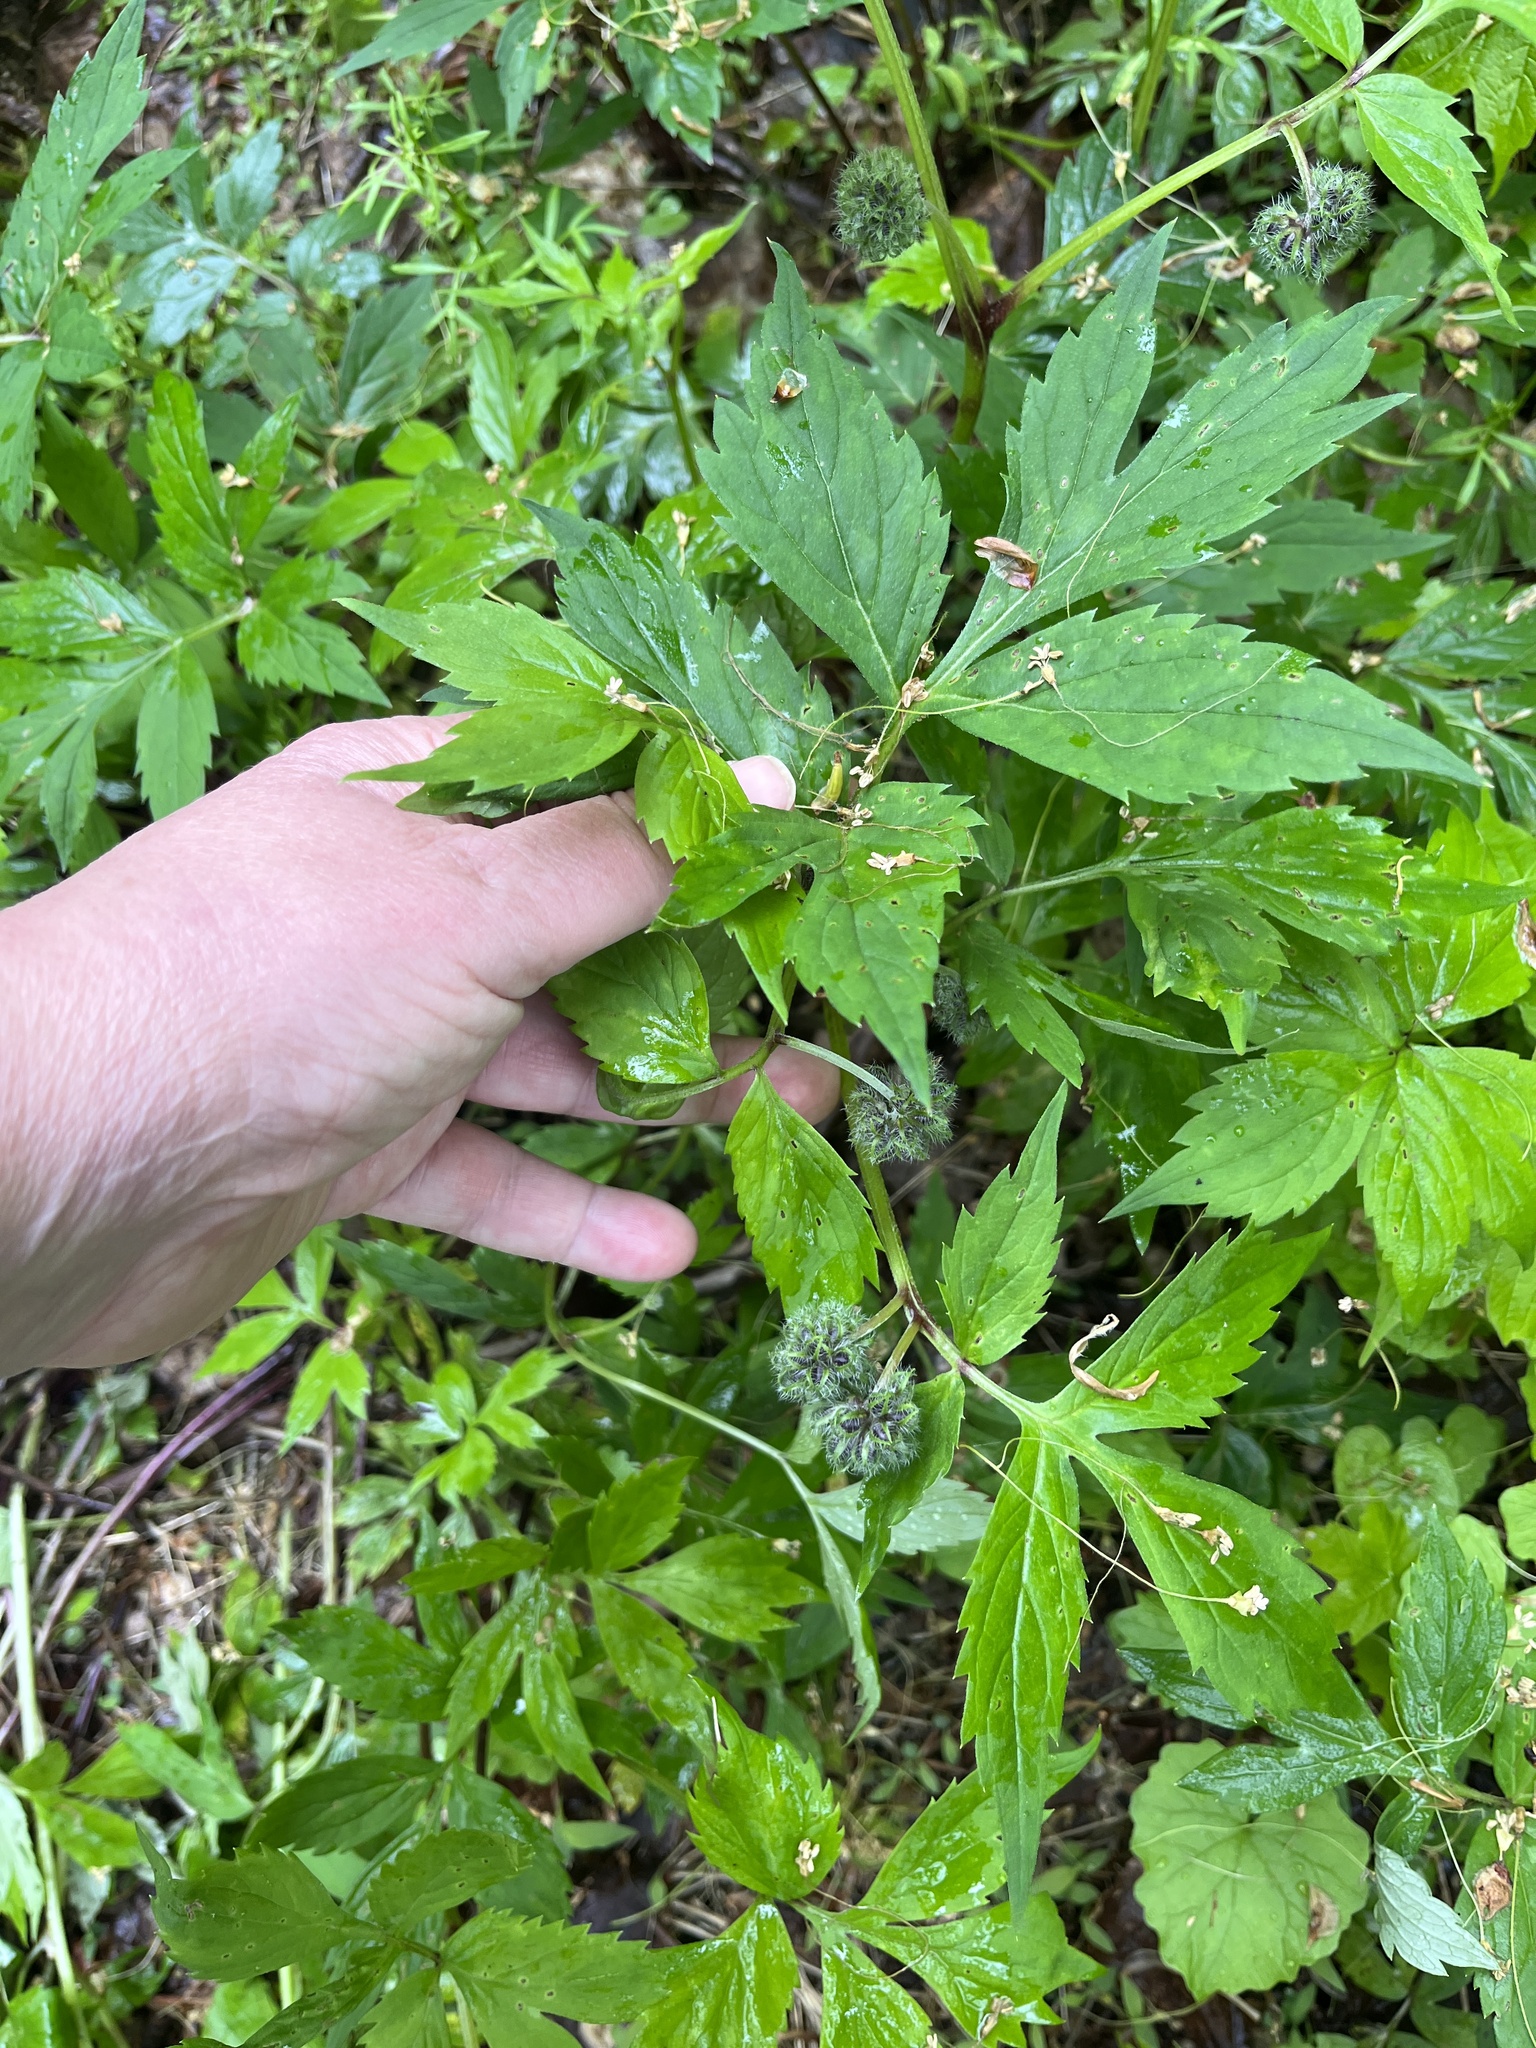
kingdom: Plantae
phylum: Tracheophyta
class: Magnoliopsida
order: Boraginales
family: Hydrophyllaceae
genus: Hydrophyllum
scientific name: Hydrophyllum virginianum
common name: Virginia waterleaf
